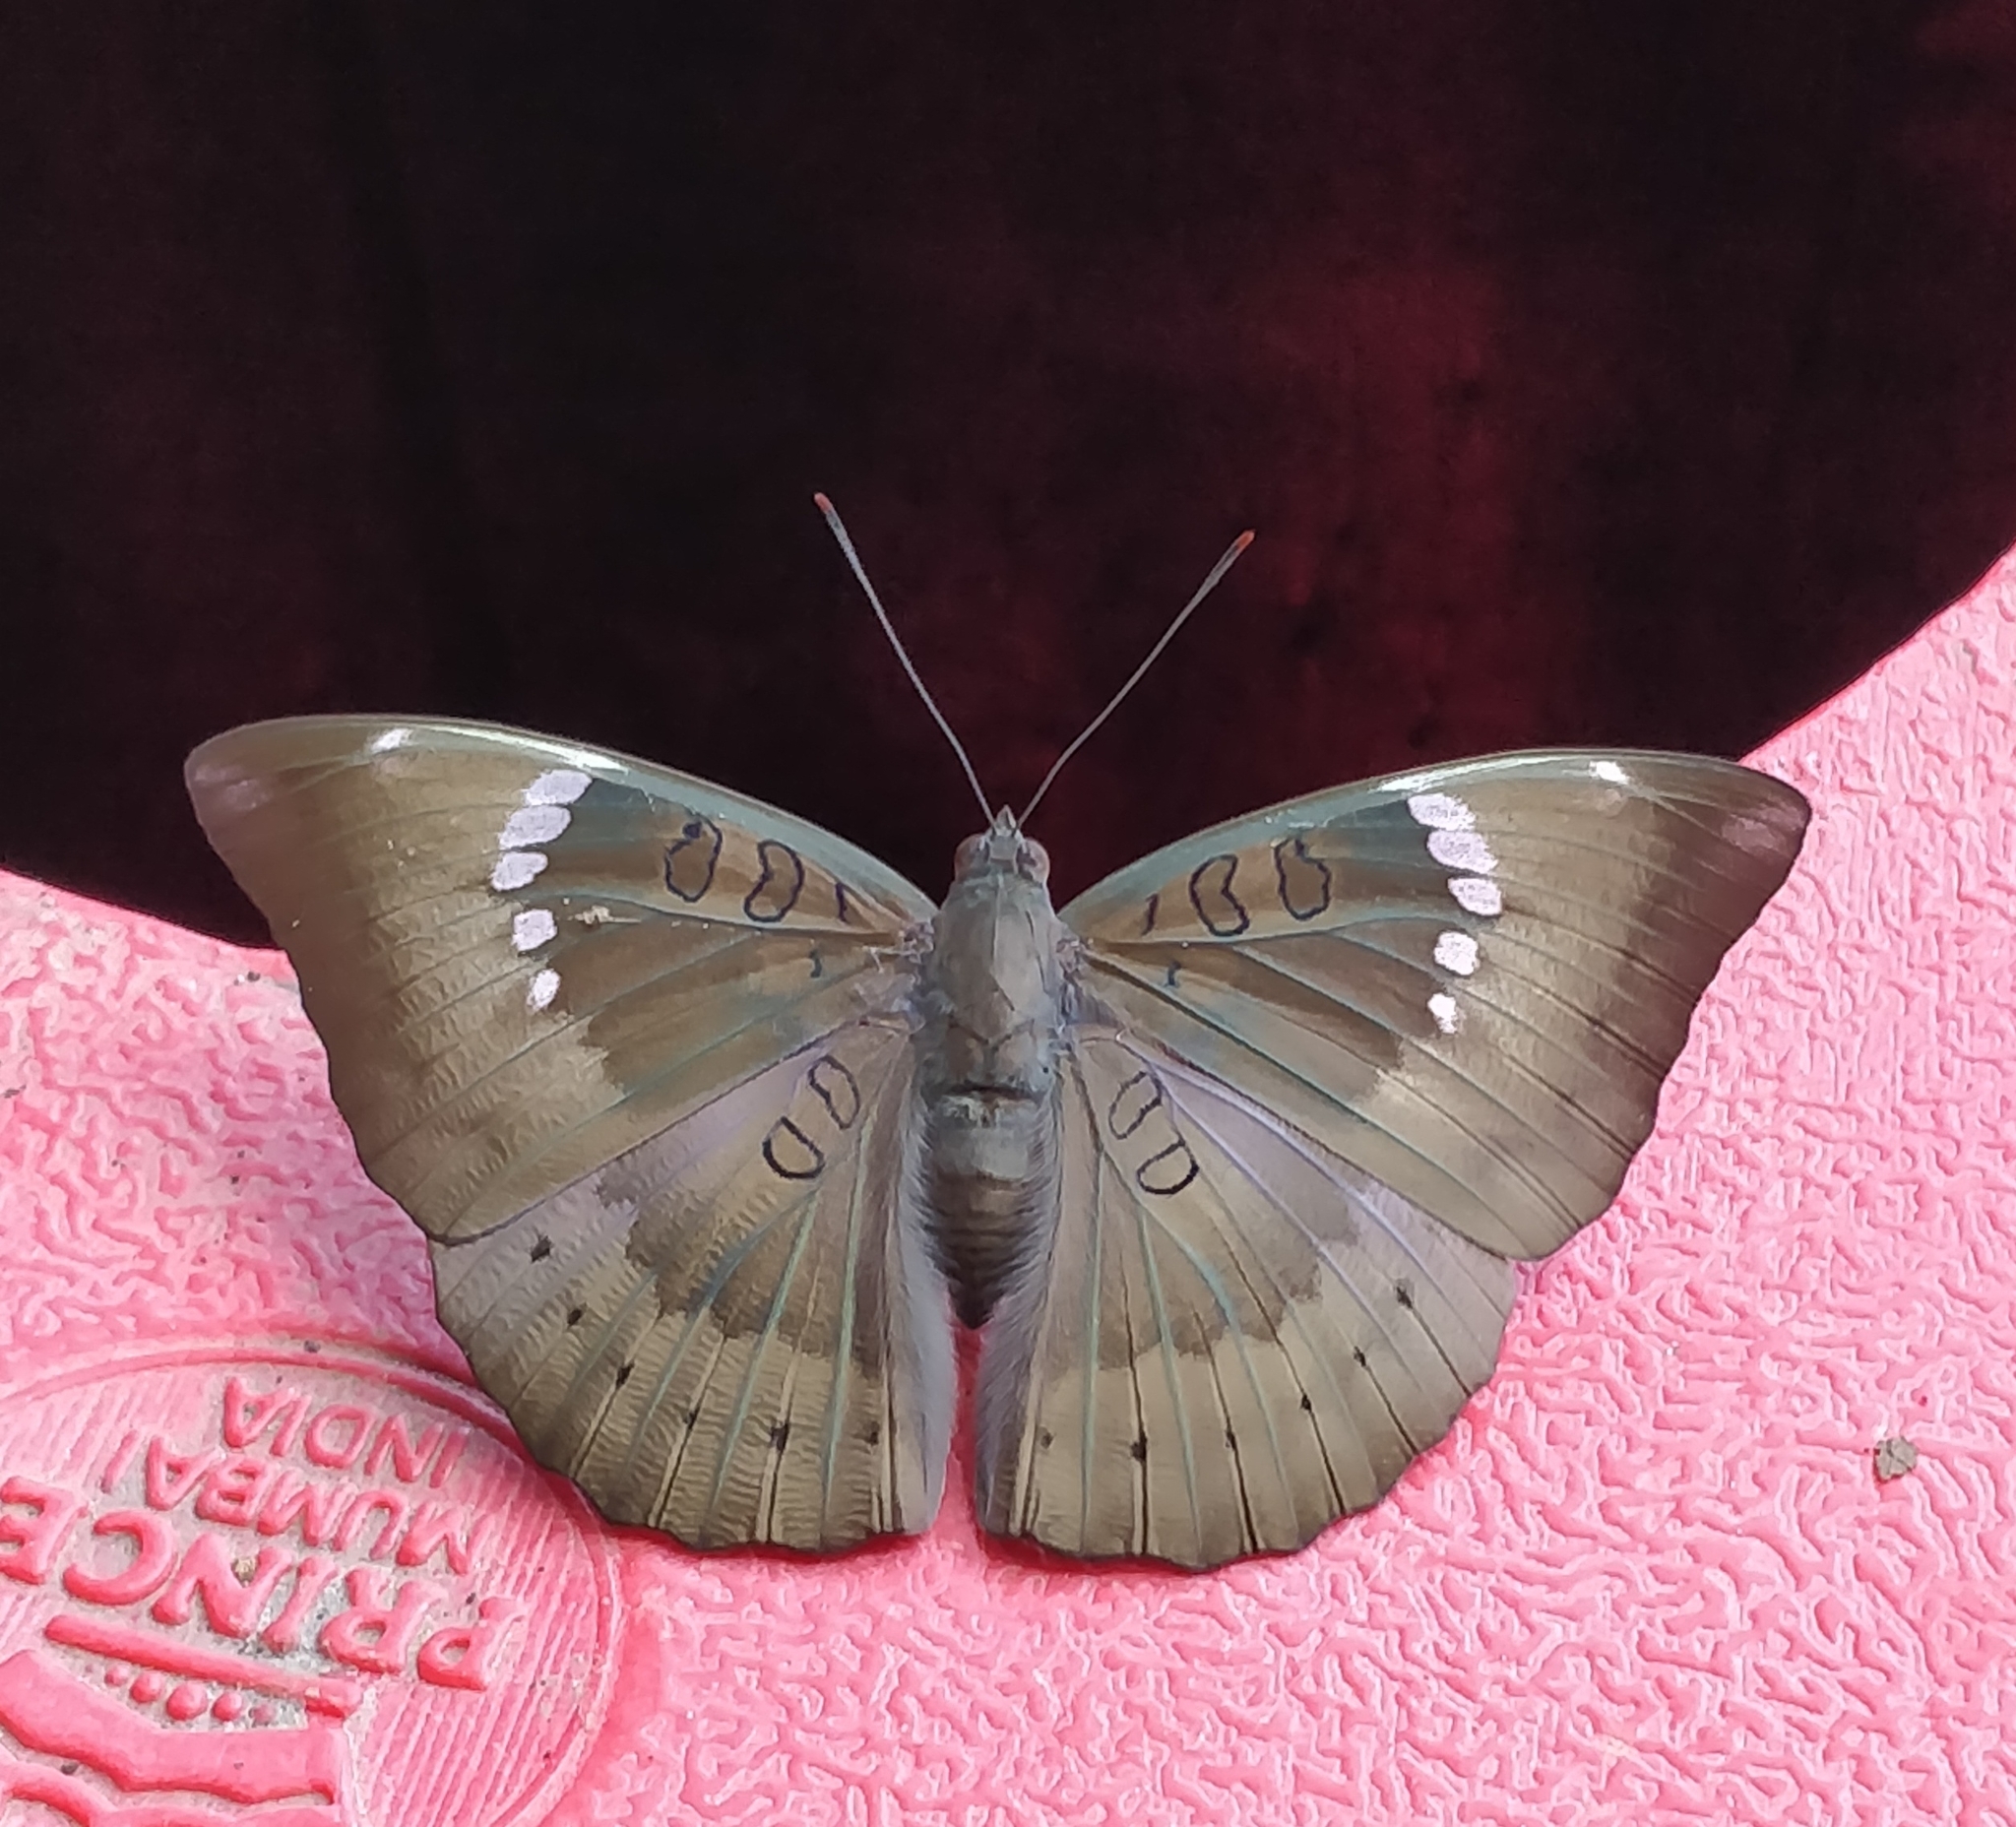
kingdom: Animalia
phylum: Arthropoda
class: Insecta
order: Lepidoptera
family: Nymphalidae
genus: Euthalia
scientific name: Euthalia aconthea
